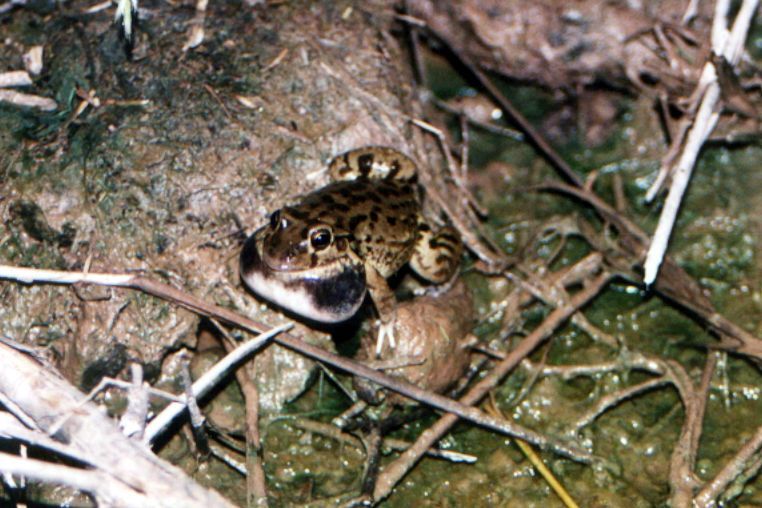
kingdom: Animalia
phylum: Chordata
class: Amphibia
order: Anura
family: Leptodactylidae
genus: Leptodactylus
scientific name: Leptodactylus bufonius
